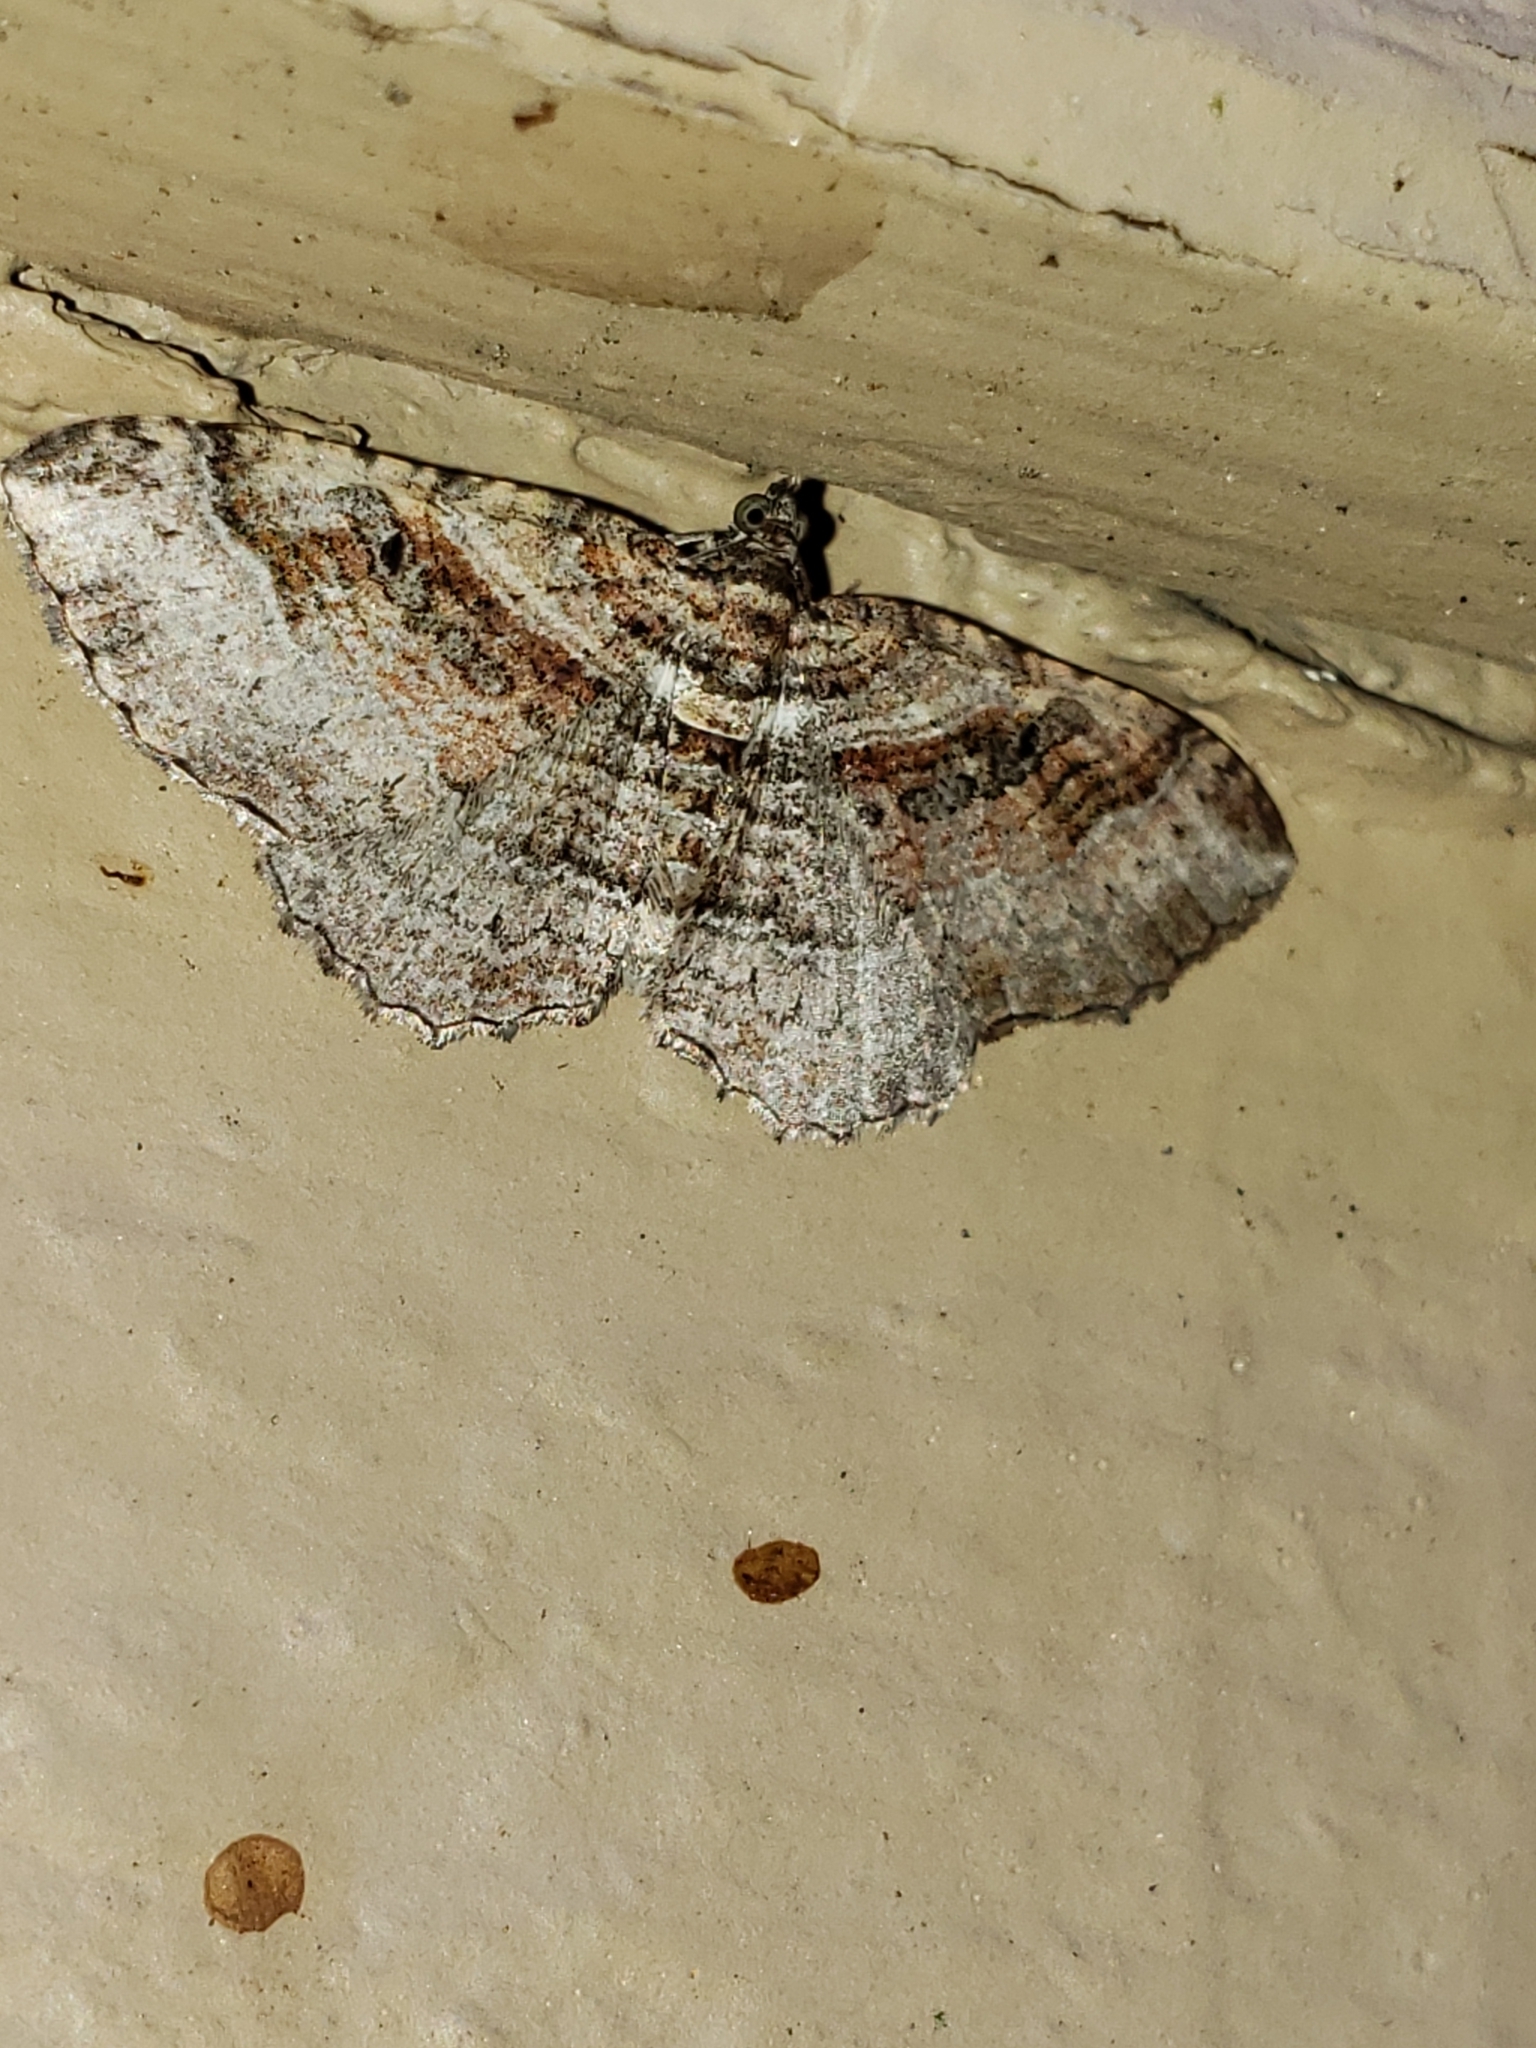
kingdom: Animalia
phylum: Arthropoda
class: Insecta
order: Lepidoptera
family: Geometridae
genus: Costaconvexa
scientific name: Costaconvexa centrostrigaria
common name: Bent-line carpet
